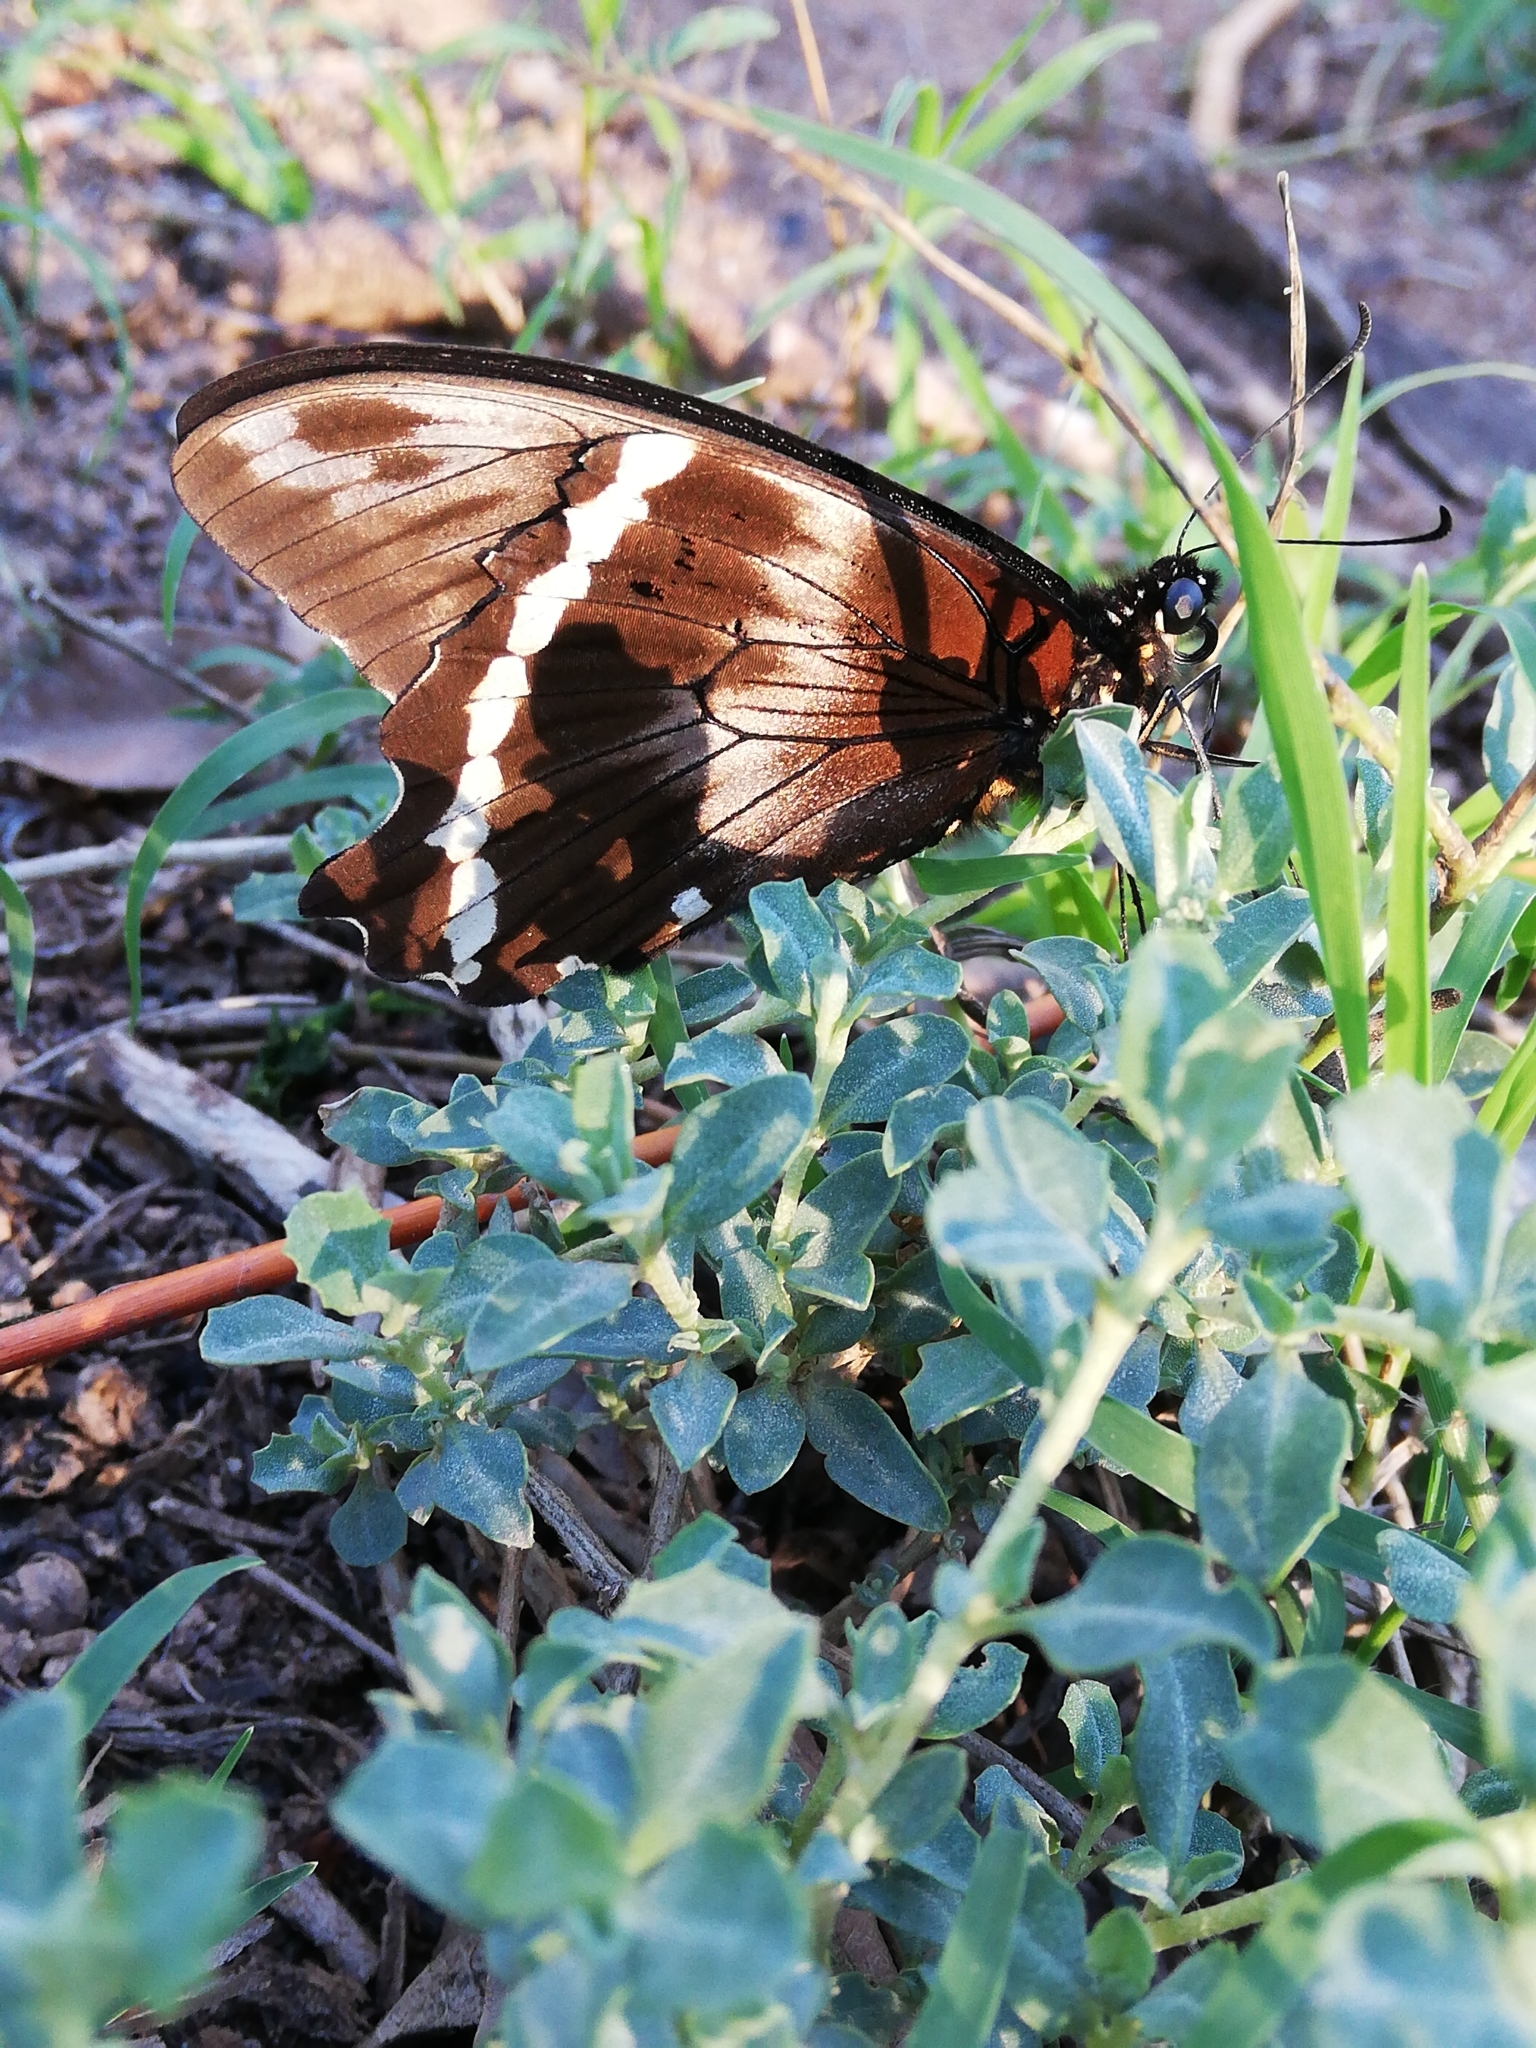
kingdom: Animalia
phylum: Arthropoda
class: Insecta
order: Lepidoptera
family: Papilionidae
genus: Papilio
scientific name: Papilio nireus
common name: Greenbanded swallowtail
